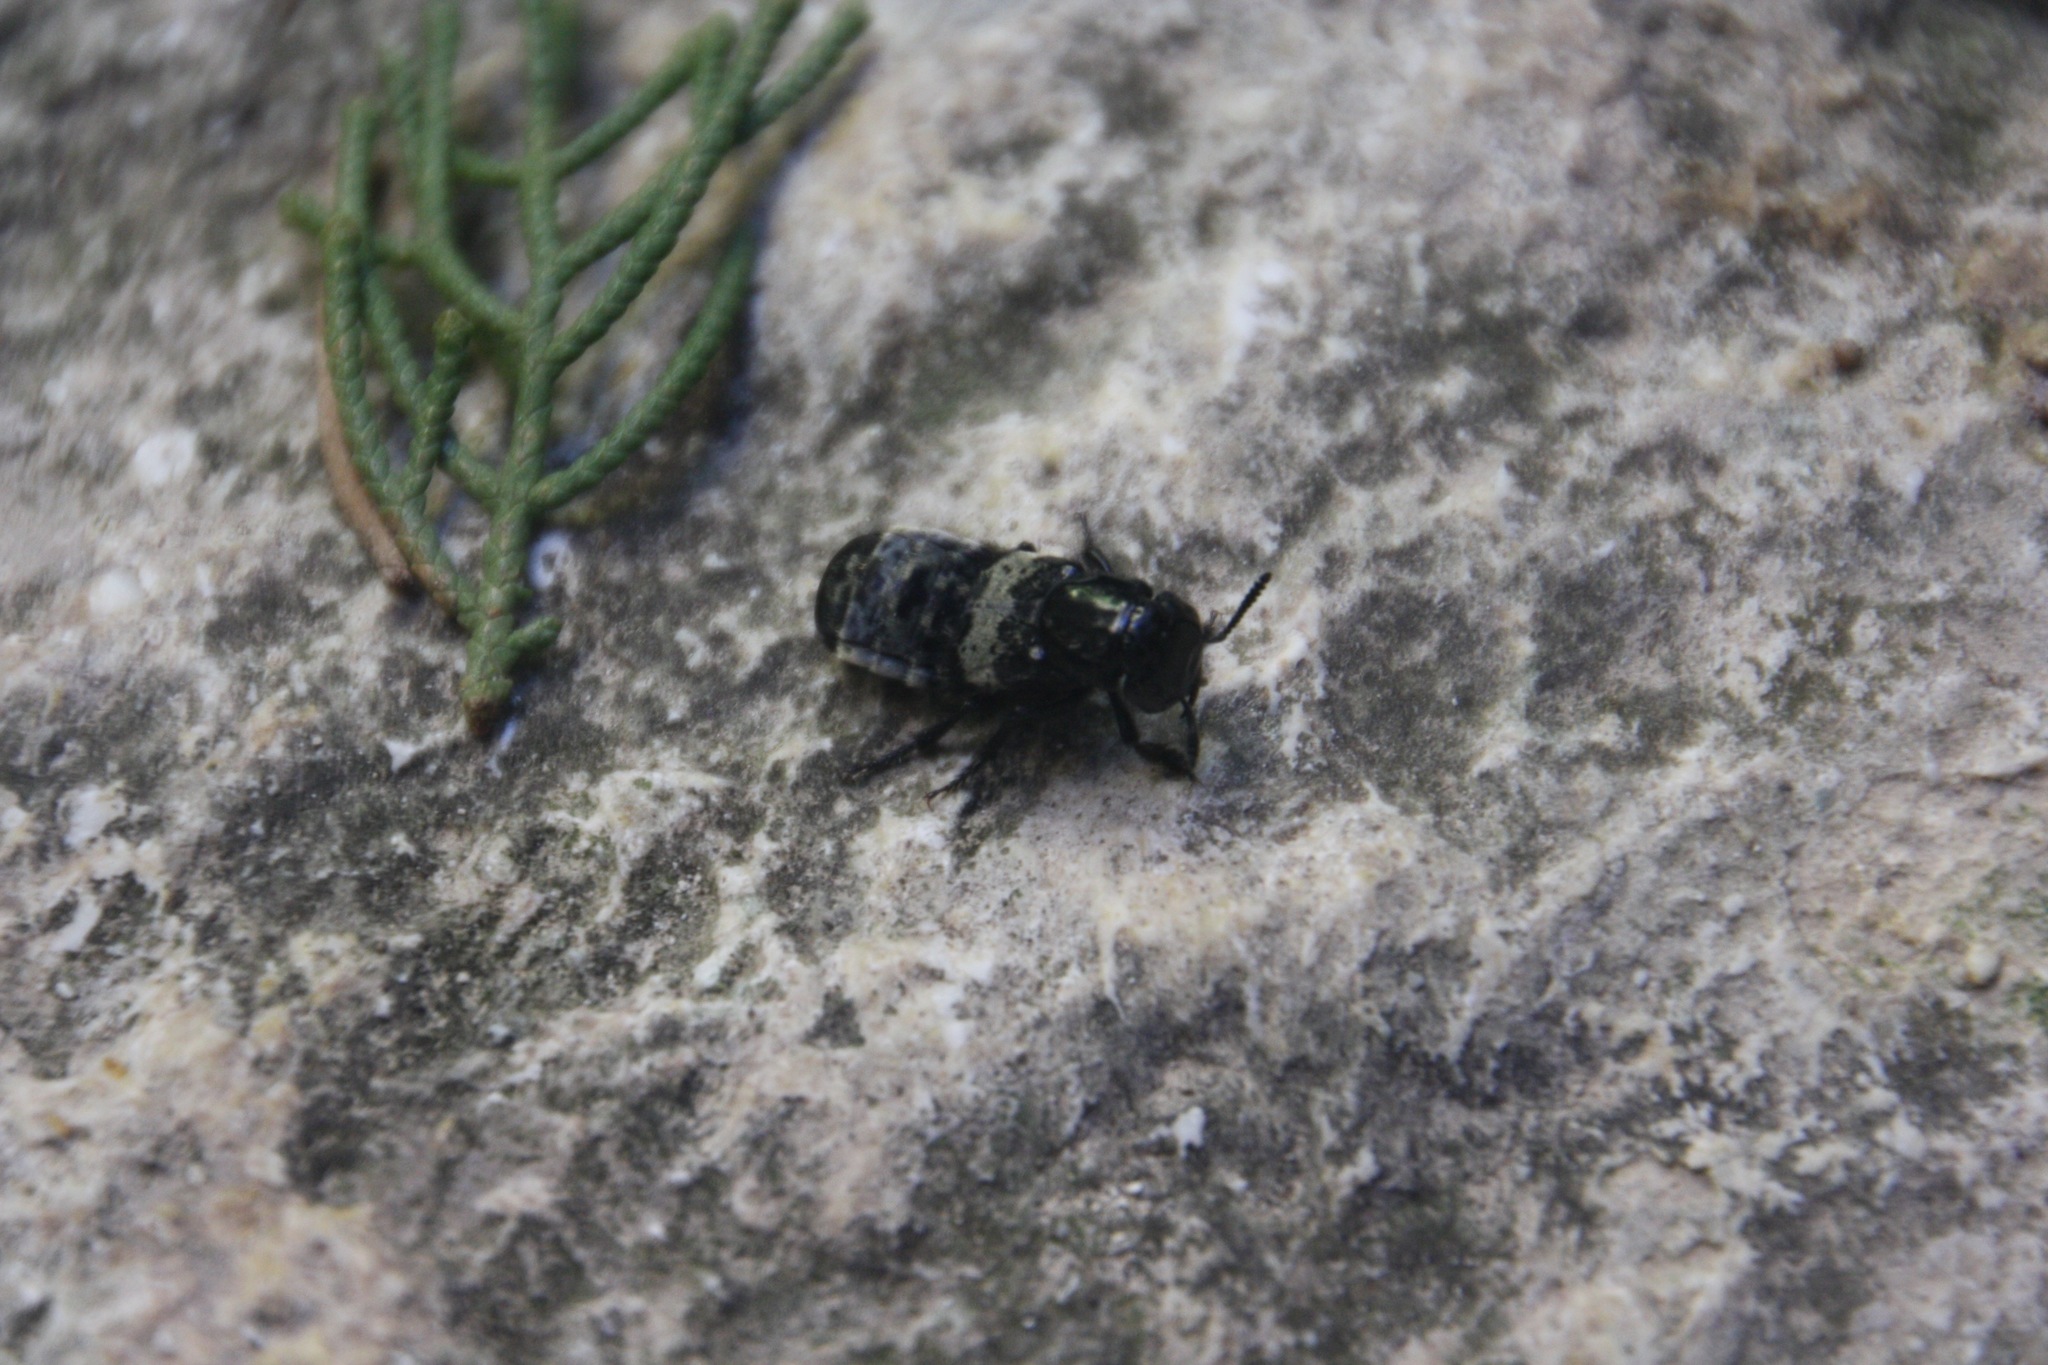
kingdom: Animalia
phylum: Arthropoda
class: Insecta
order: Coleoptera
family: Staphylinidae
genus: Creophilus
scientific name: Creophilus maxillosus
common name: Hairy rove beetle
